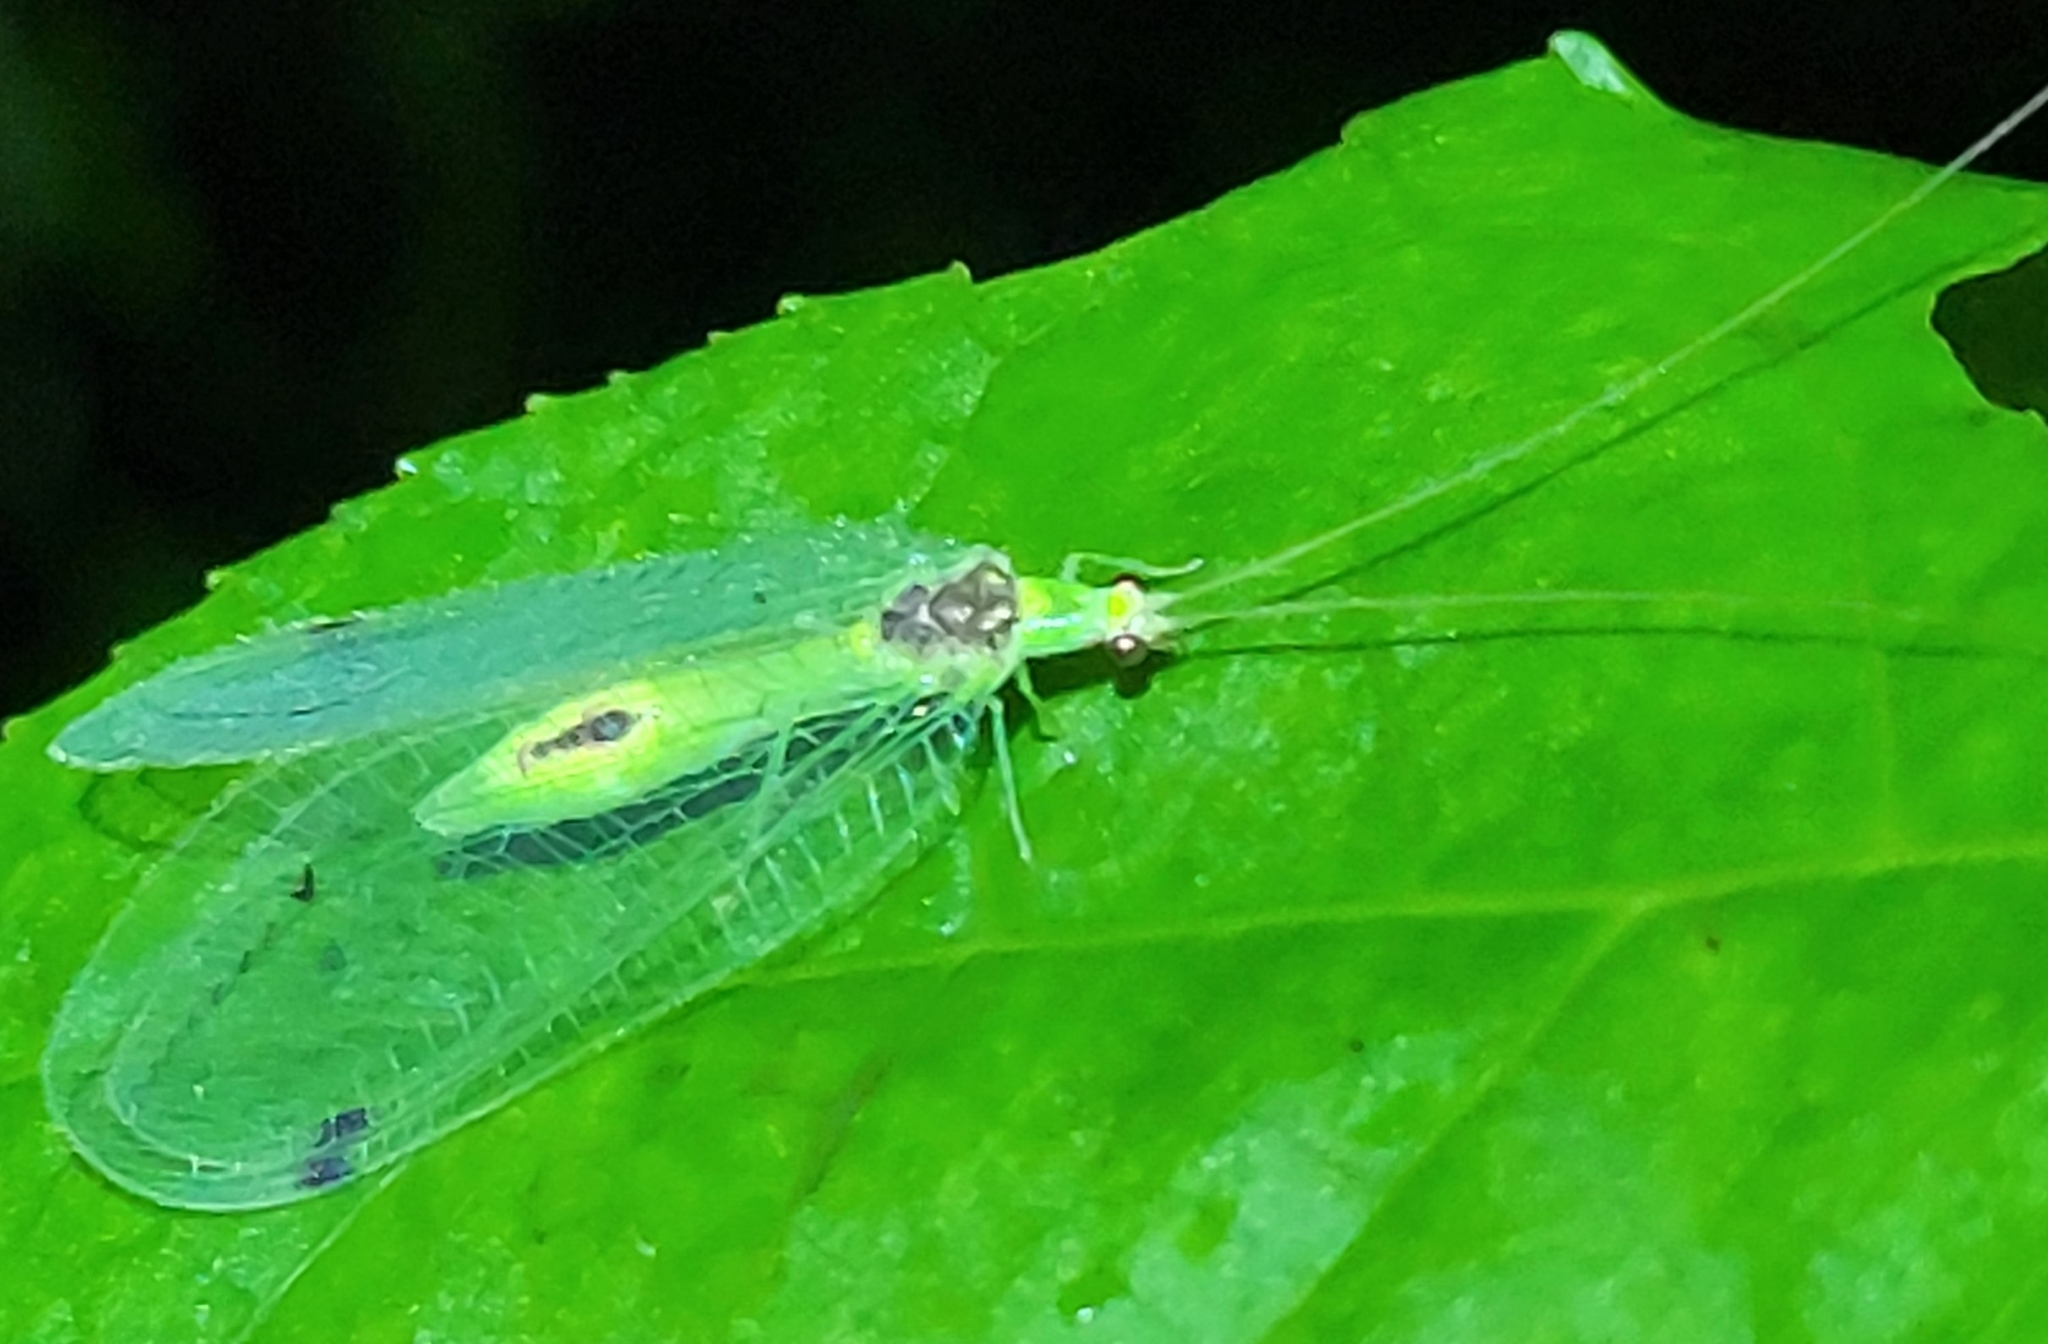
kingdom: Animalia
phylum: Arthropoda
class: Insecta
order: Neuroptera
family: Chrysopidae
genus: Leucochrysa
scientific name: Leucochrysa insularis
